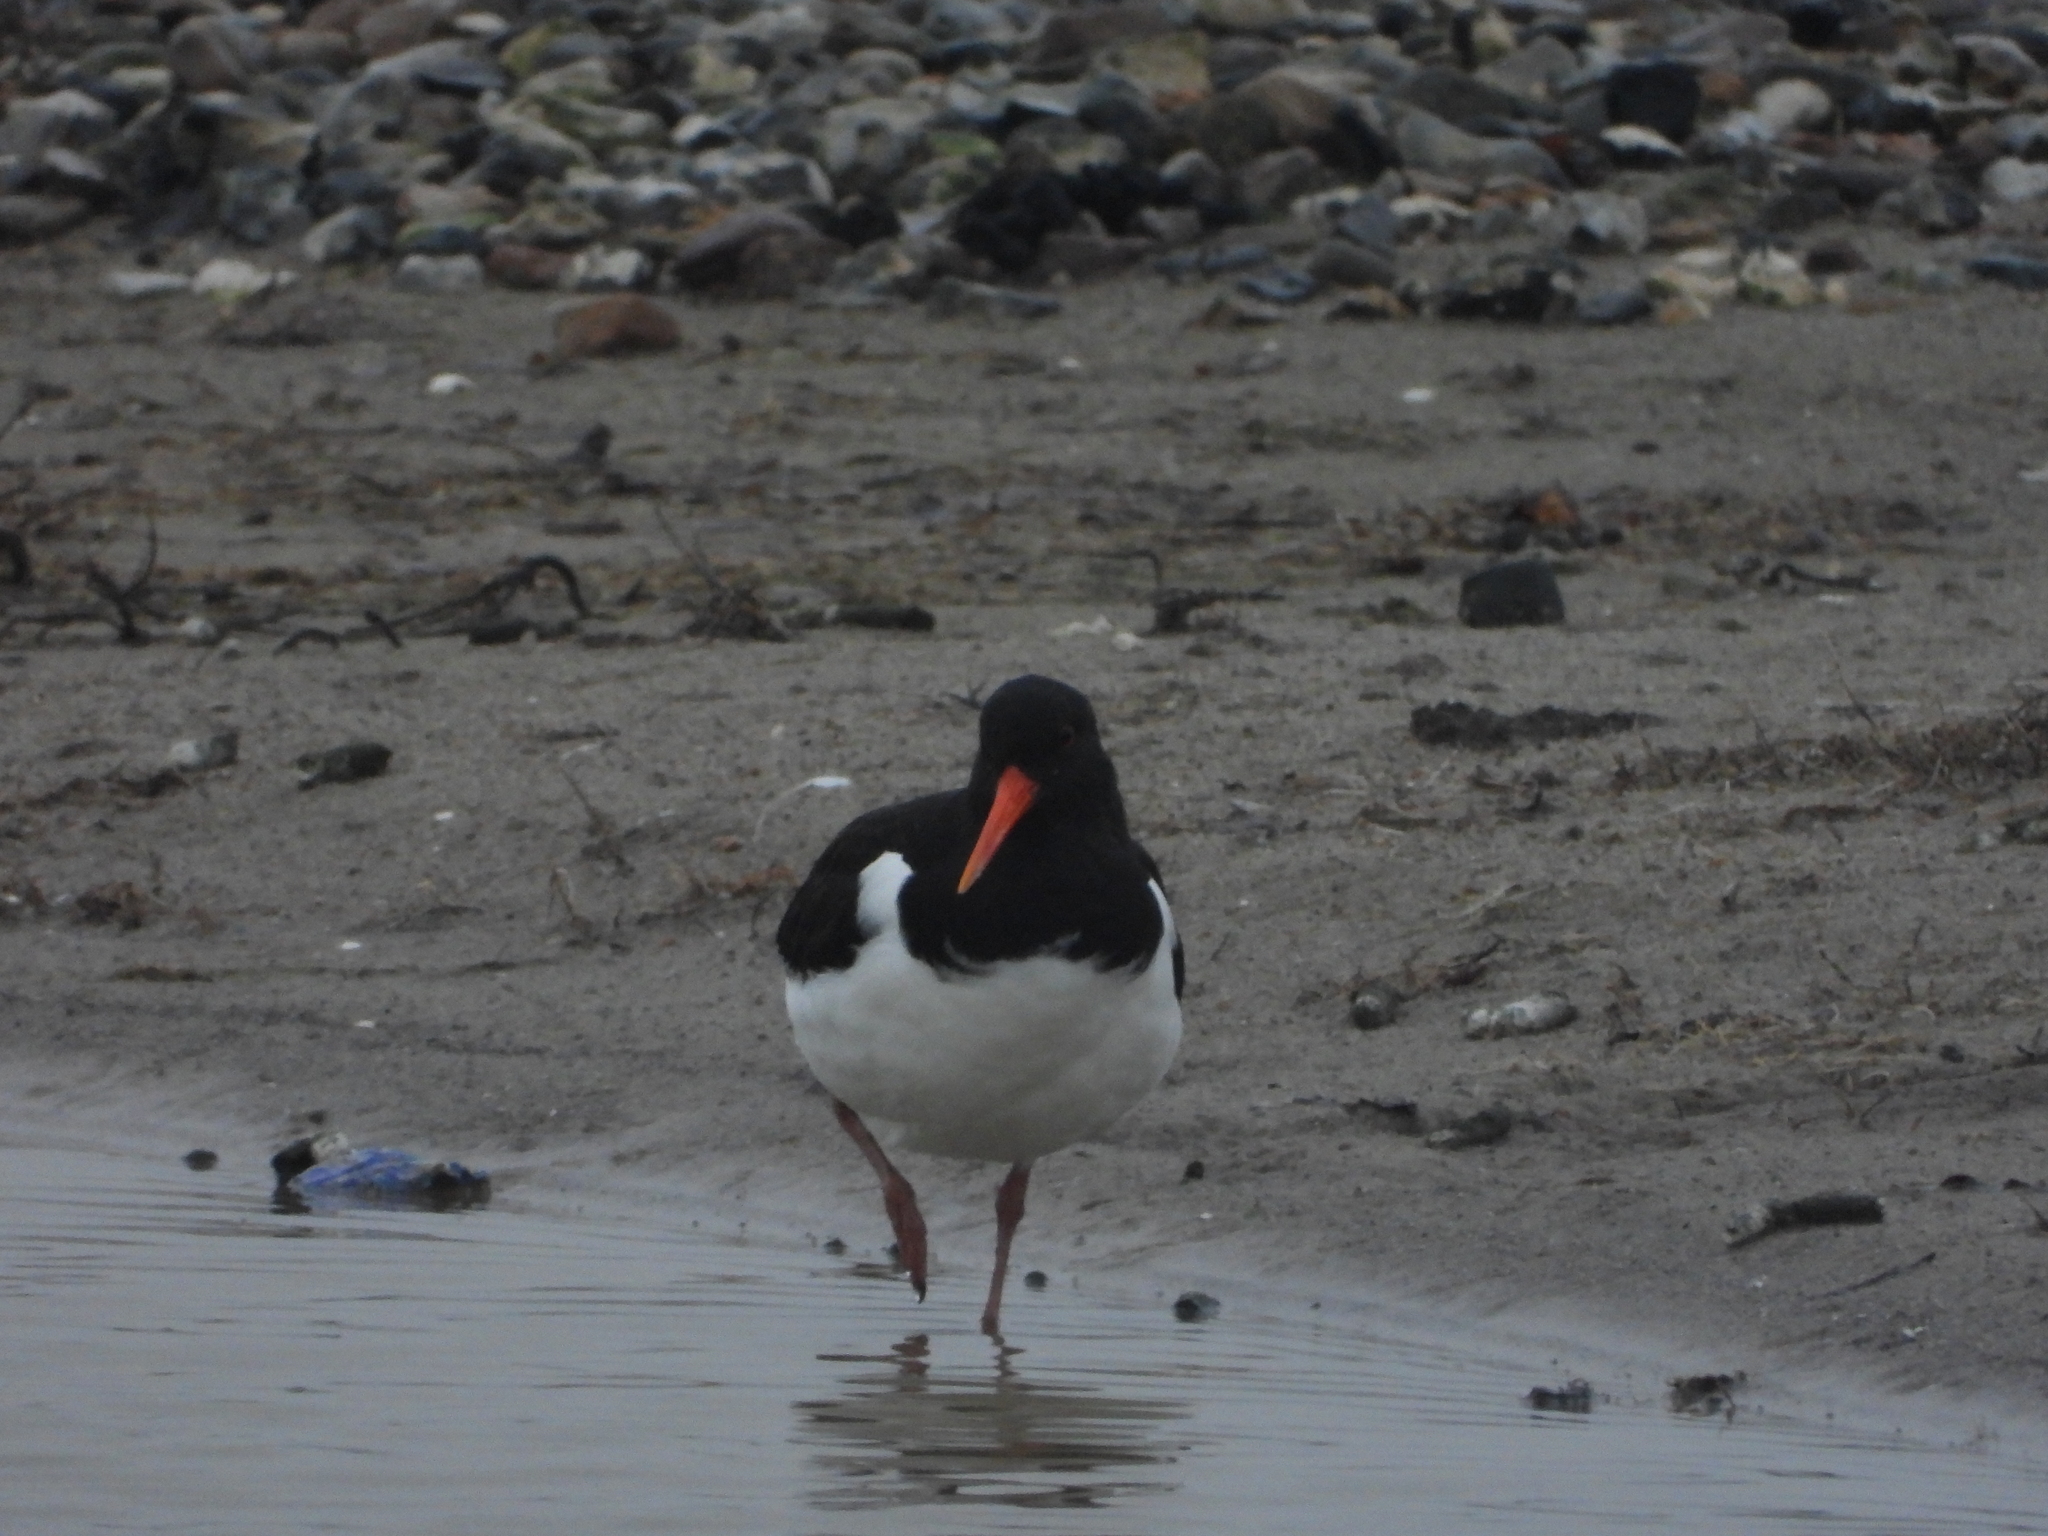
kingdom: Animalia
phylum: Chordata
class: Aves
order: Charadriiformes
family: Haematopodidae
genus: Haematopus
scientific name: Haematopus ostralegus
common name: Eurasian oystercatcher
